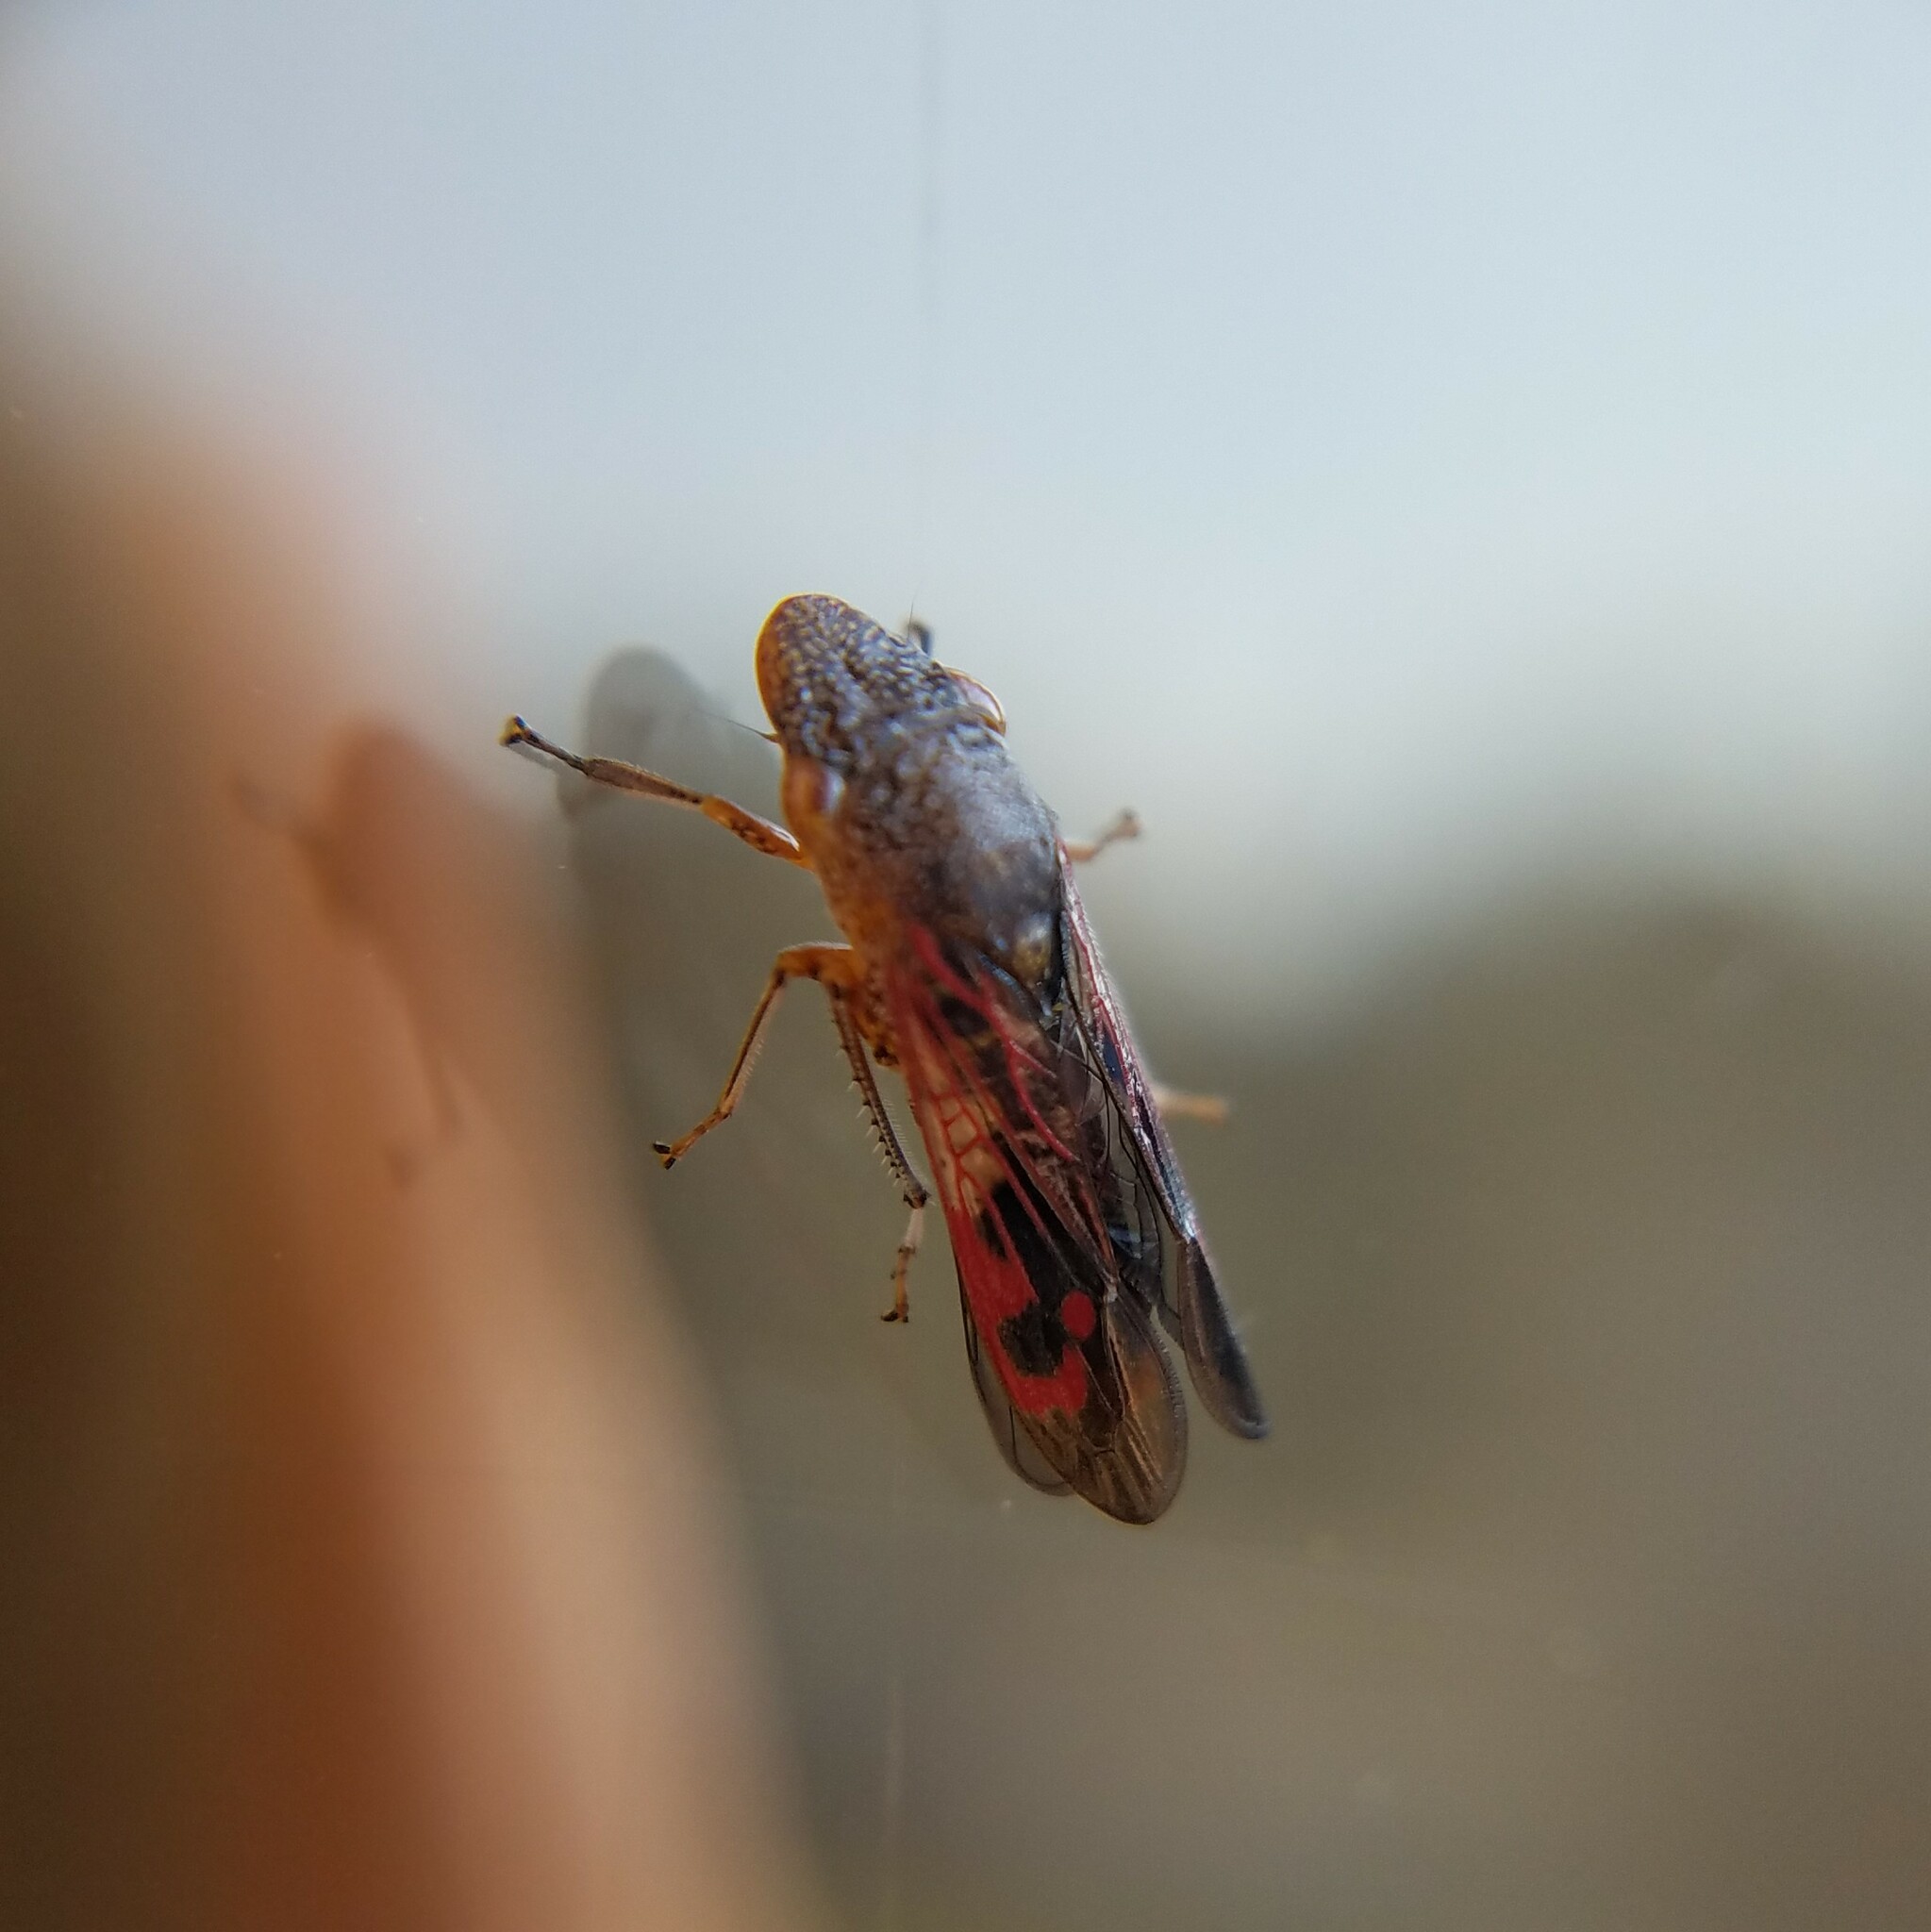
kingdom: Animalia
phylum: Arthropoda
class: Insecta
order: Hemiptera
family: Cicadellidae
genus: Homalodisca
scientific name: Homalodisca vitripennis
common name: Glassy-winged sharpshooter
